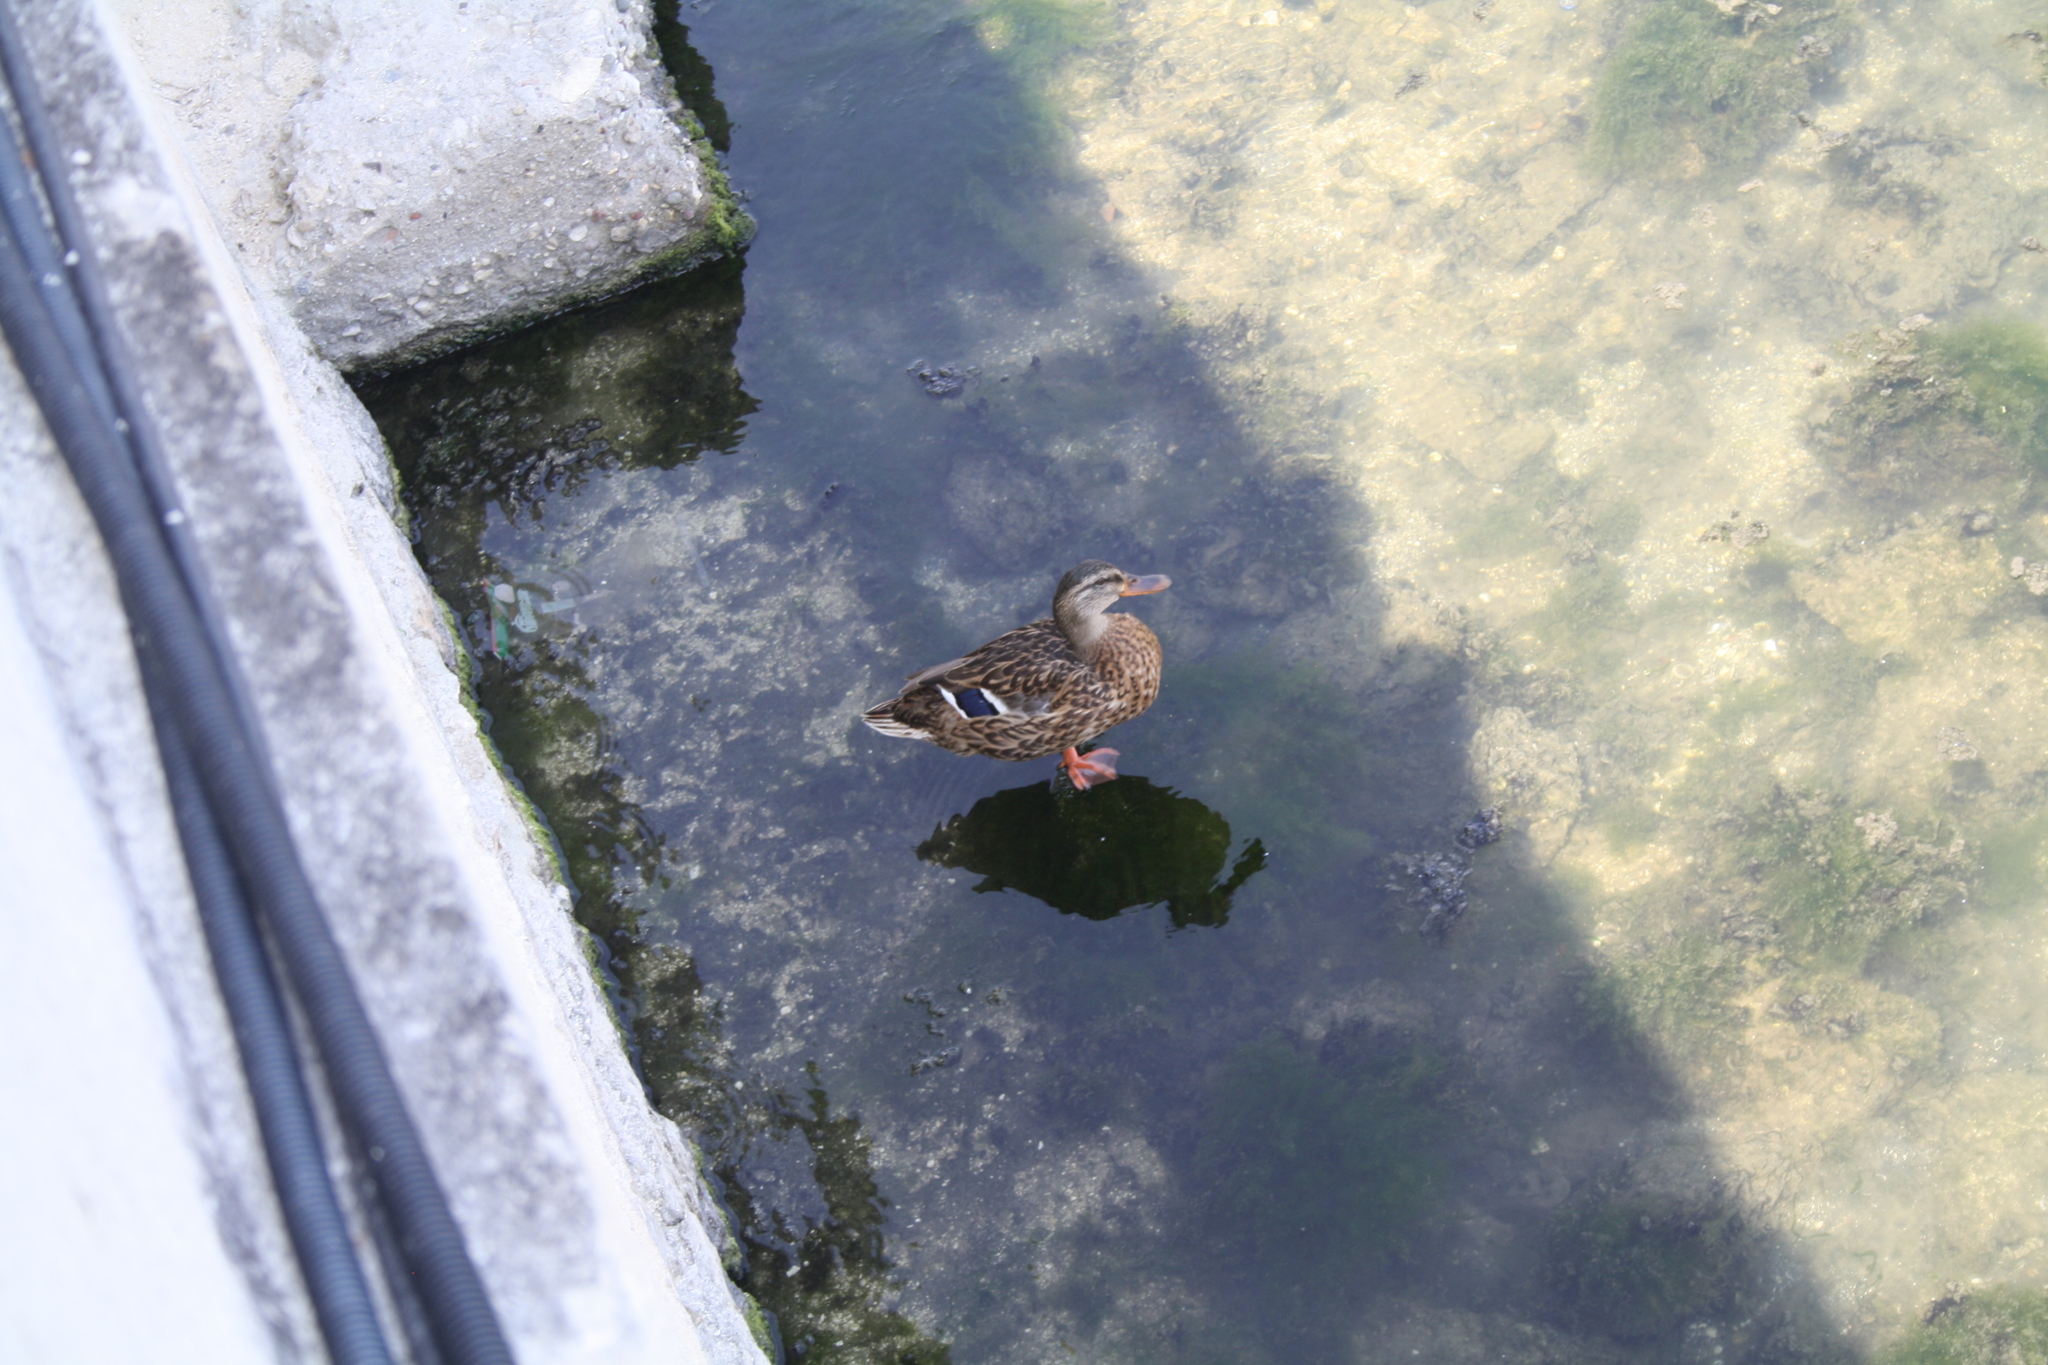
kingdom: Animalia
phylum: Chordata
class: Aves
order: Anseriformes
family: Anatidae
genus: Anas
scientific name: Anas platyrhynchos
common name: Mallard
